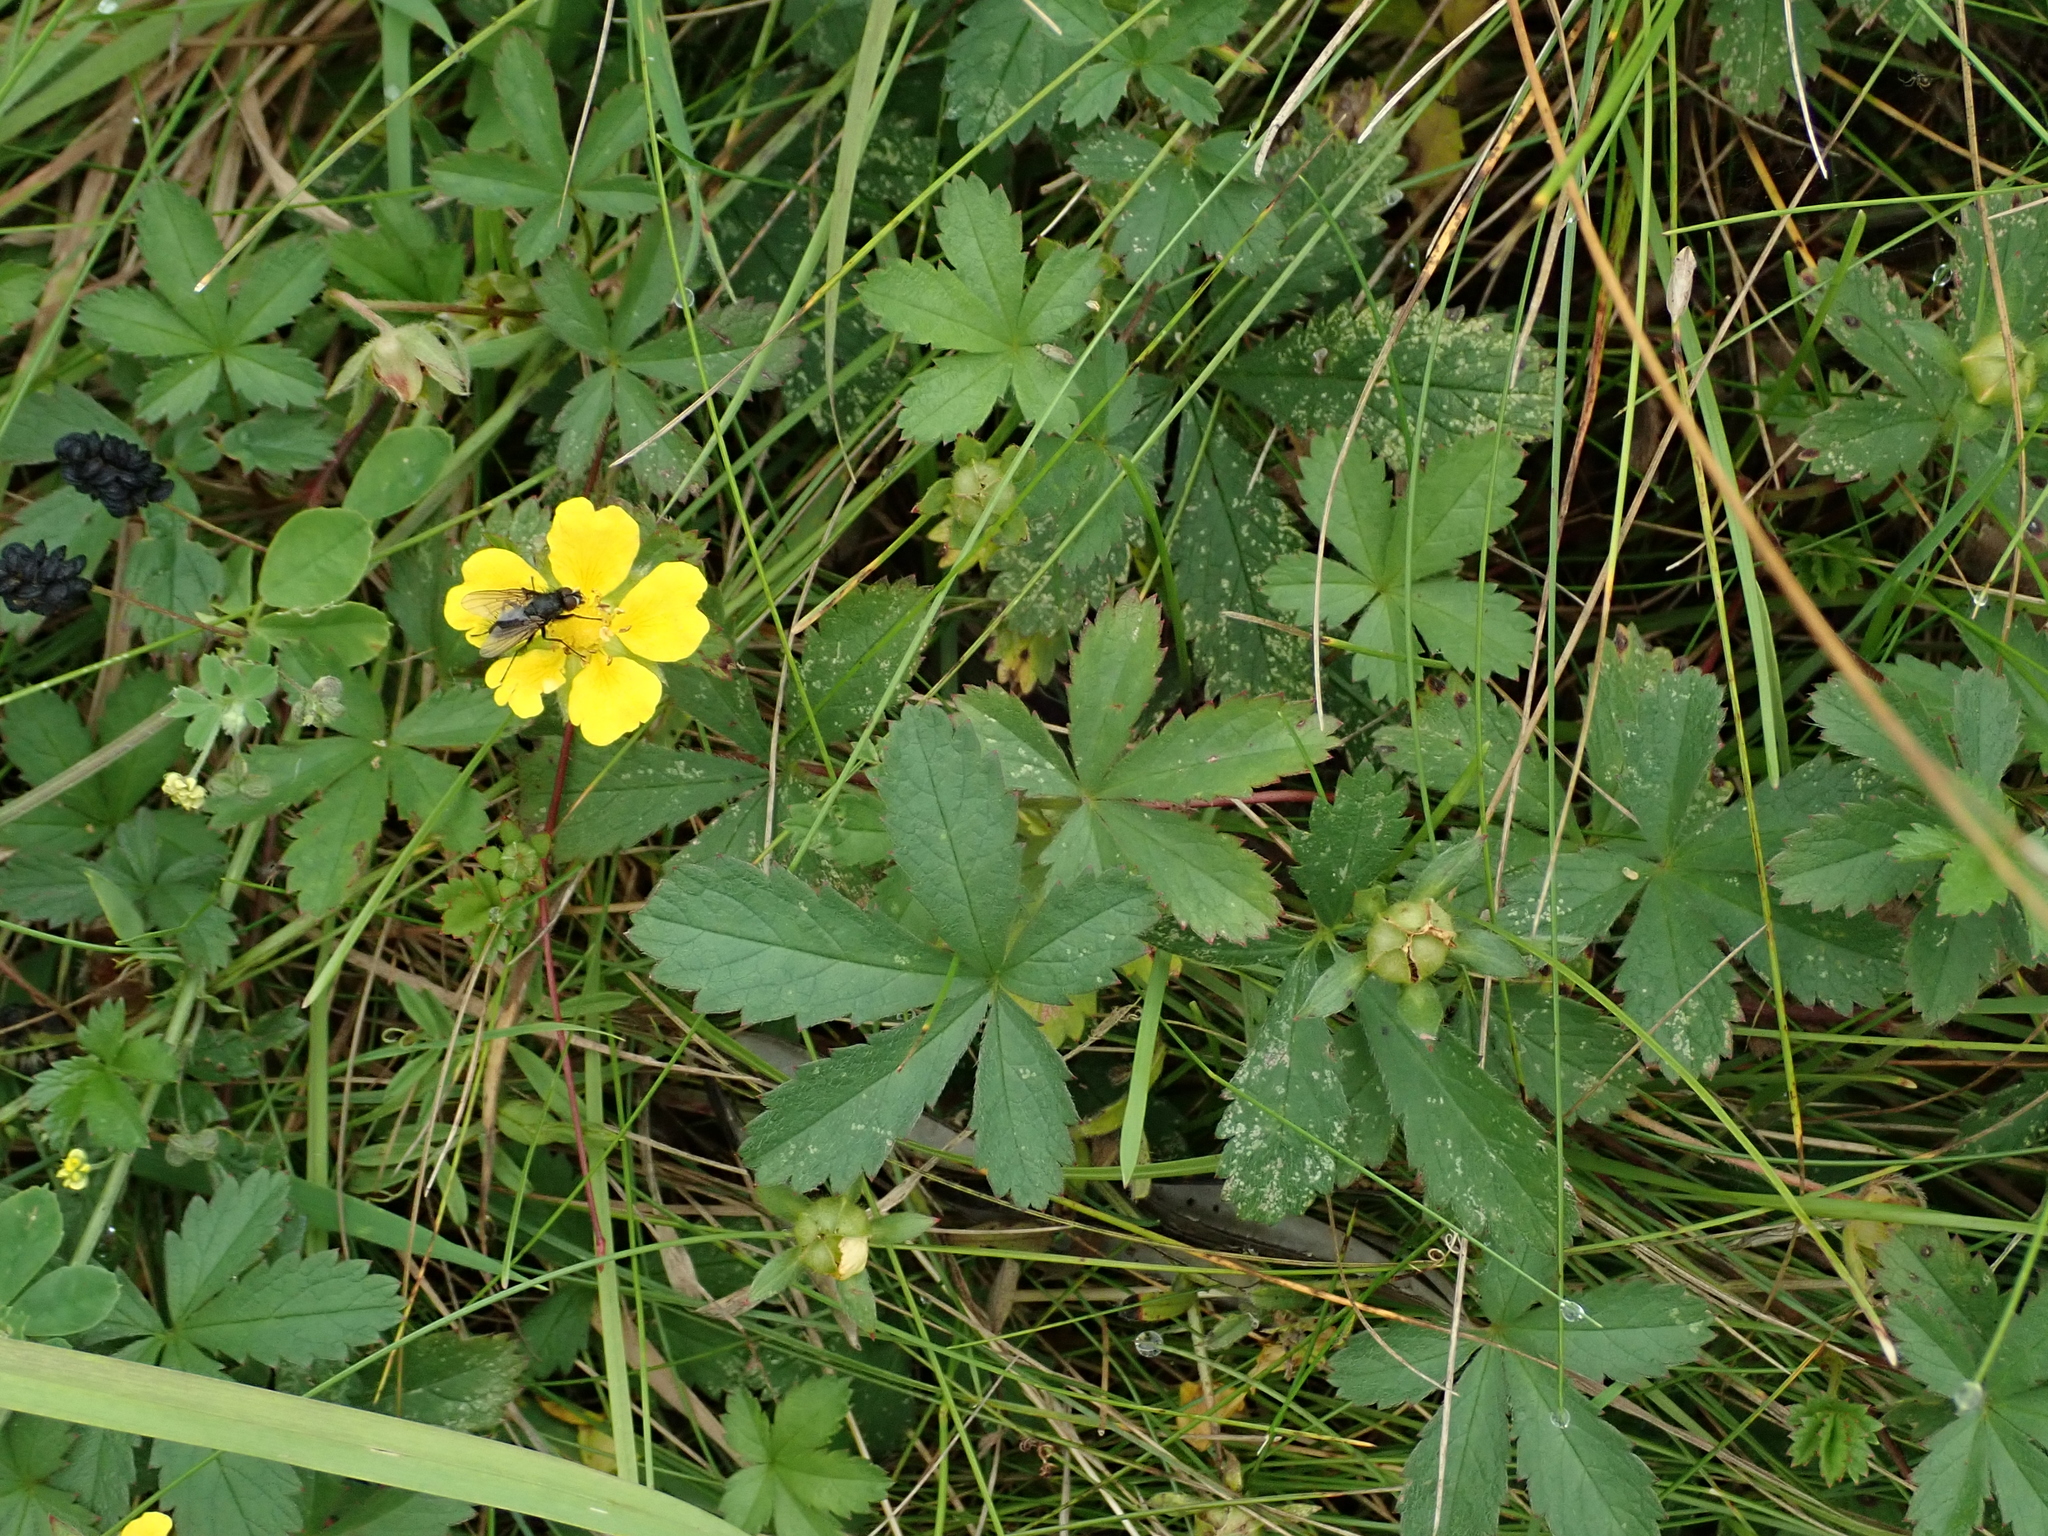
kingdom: Plantae
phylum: Tracheophyta
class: Magnoliopsida
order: Rosales
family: Rosaceae
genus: Potentilla
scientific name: Potentilla reptans
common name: Creeping cinquefoil
